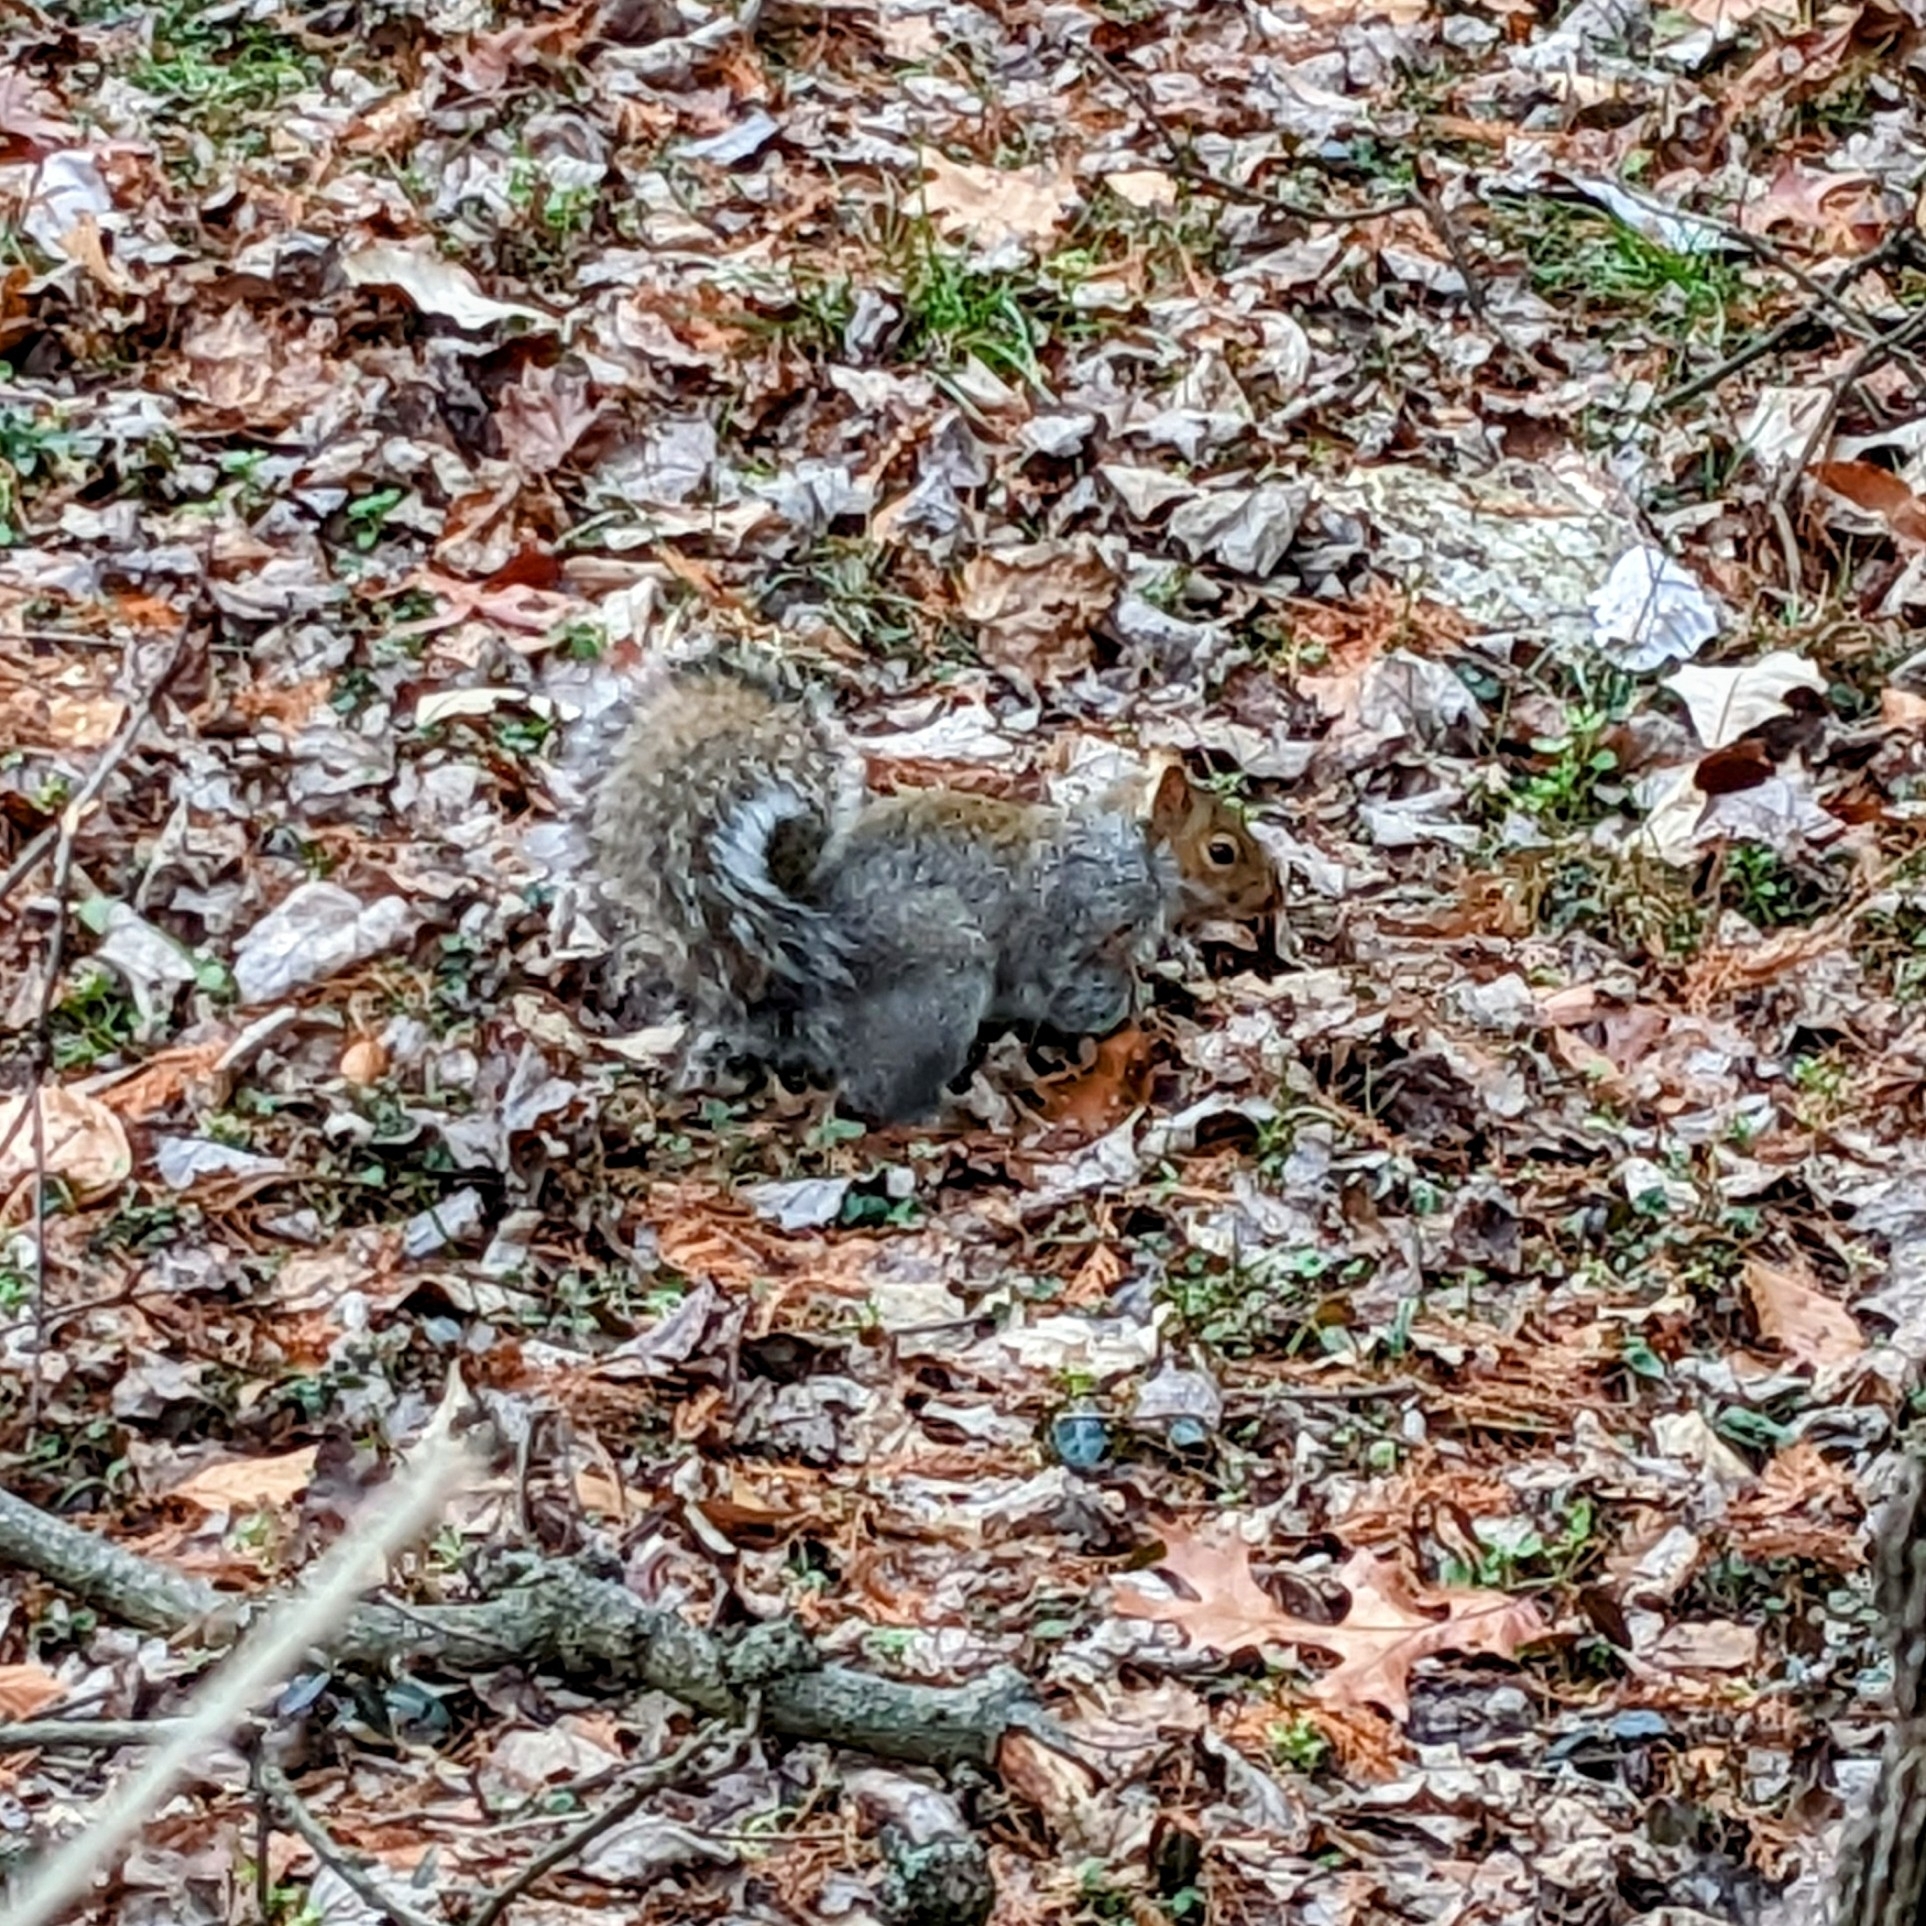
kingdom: Animalia
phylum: Chordata
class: Mammalia
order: Rodentia
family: Sciuridae
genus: Sciurus
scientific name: Sciurus carolinensis
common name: Eastern gray squirrel
